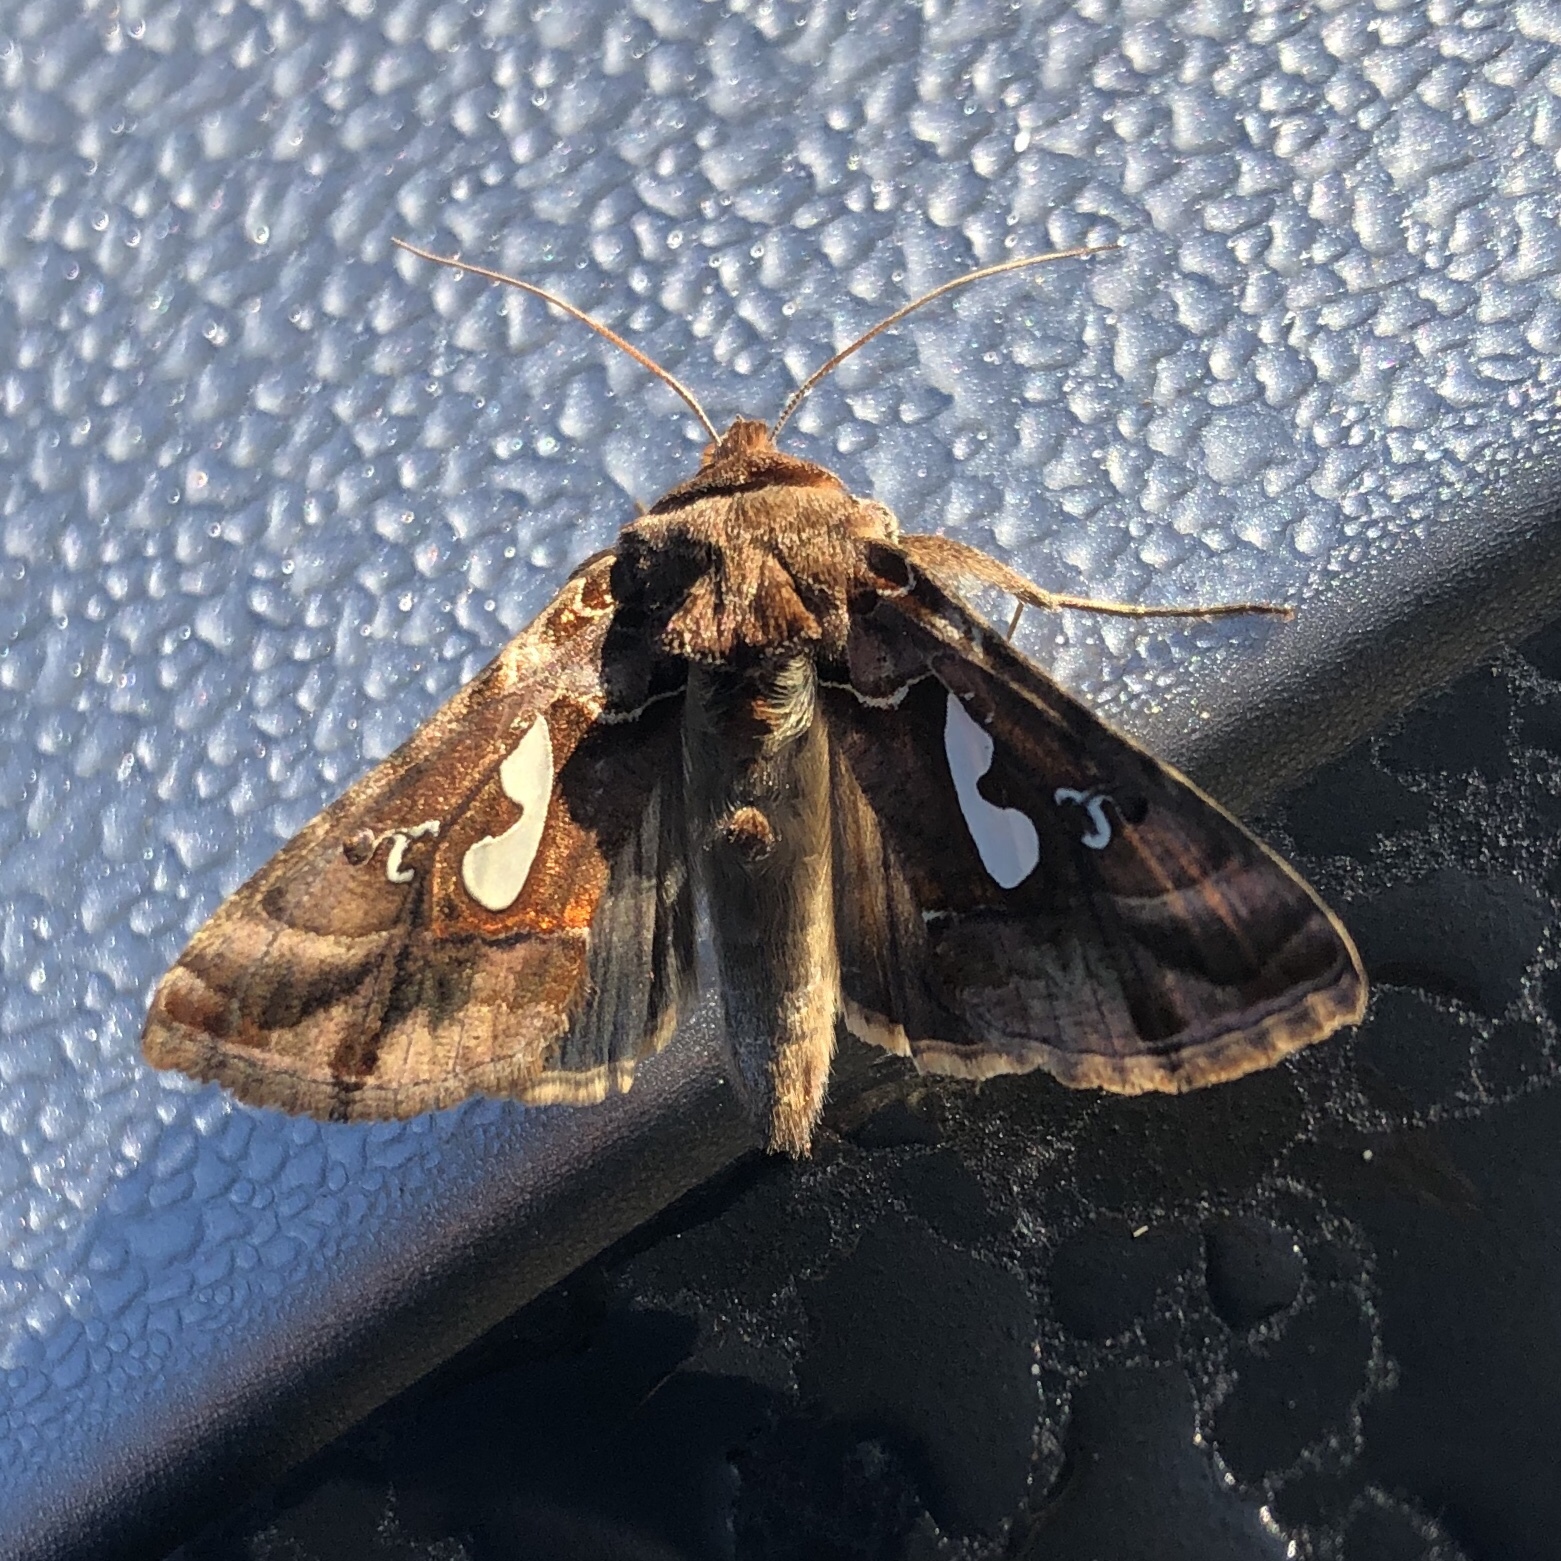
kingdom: Animalia
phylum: Arthropoda
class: Insecta
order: Lepidoptera
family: Noctuidae
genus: Megalographa
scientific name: Megalographa biloba
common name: Cutworm
